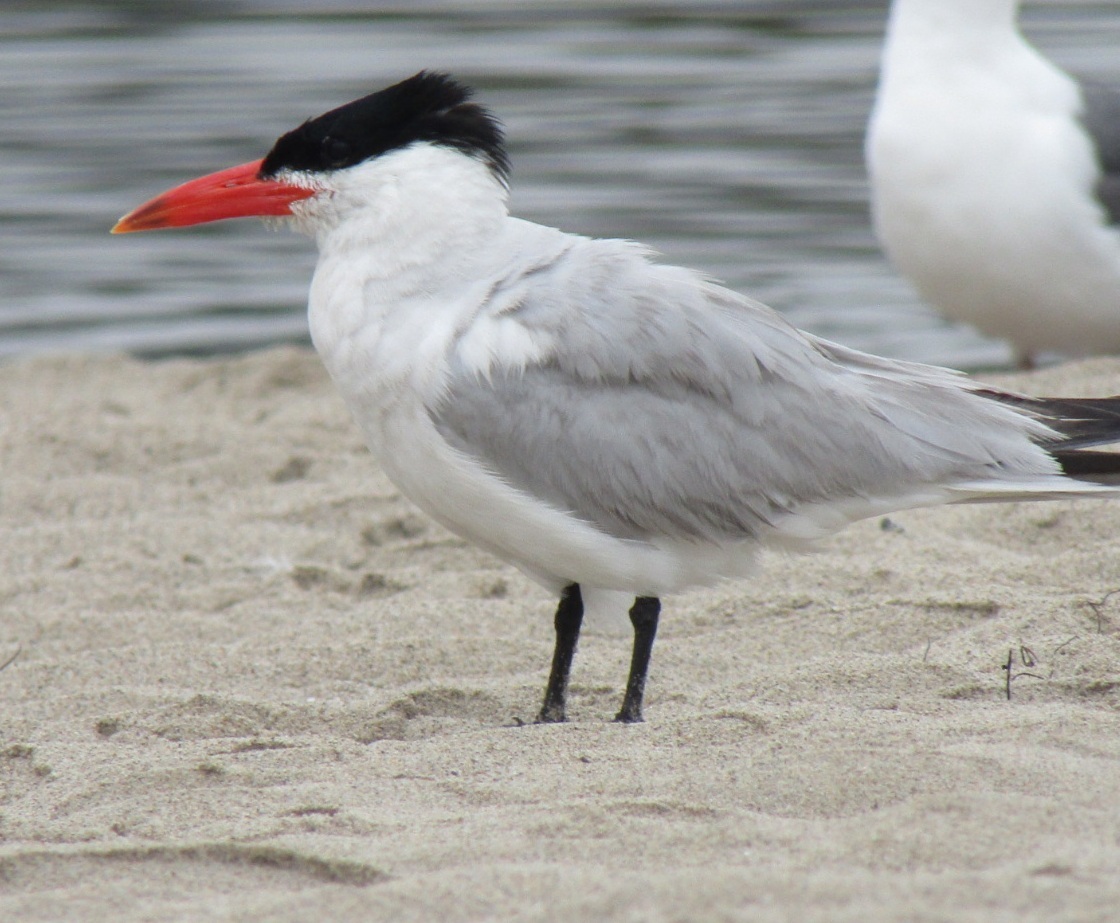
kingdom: Animalia
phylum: Chordata
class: Aves
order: Charadriiformes
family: Laridae
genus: Hydroprogne
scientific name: Hydroprogne caspia
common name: Caspian tern
